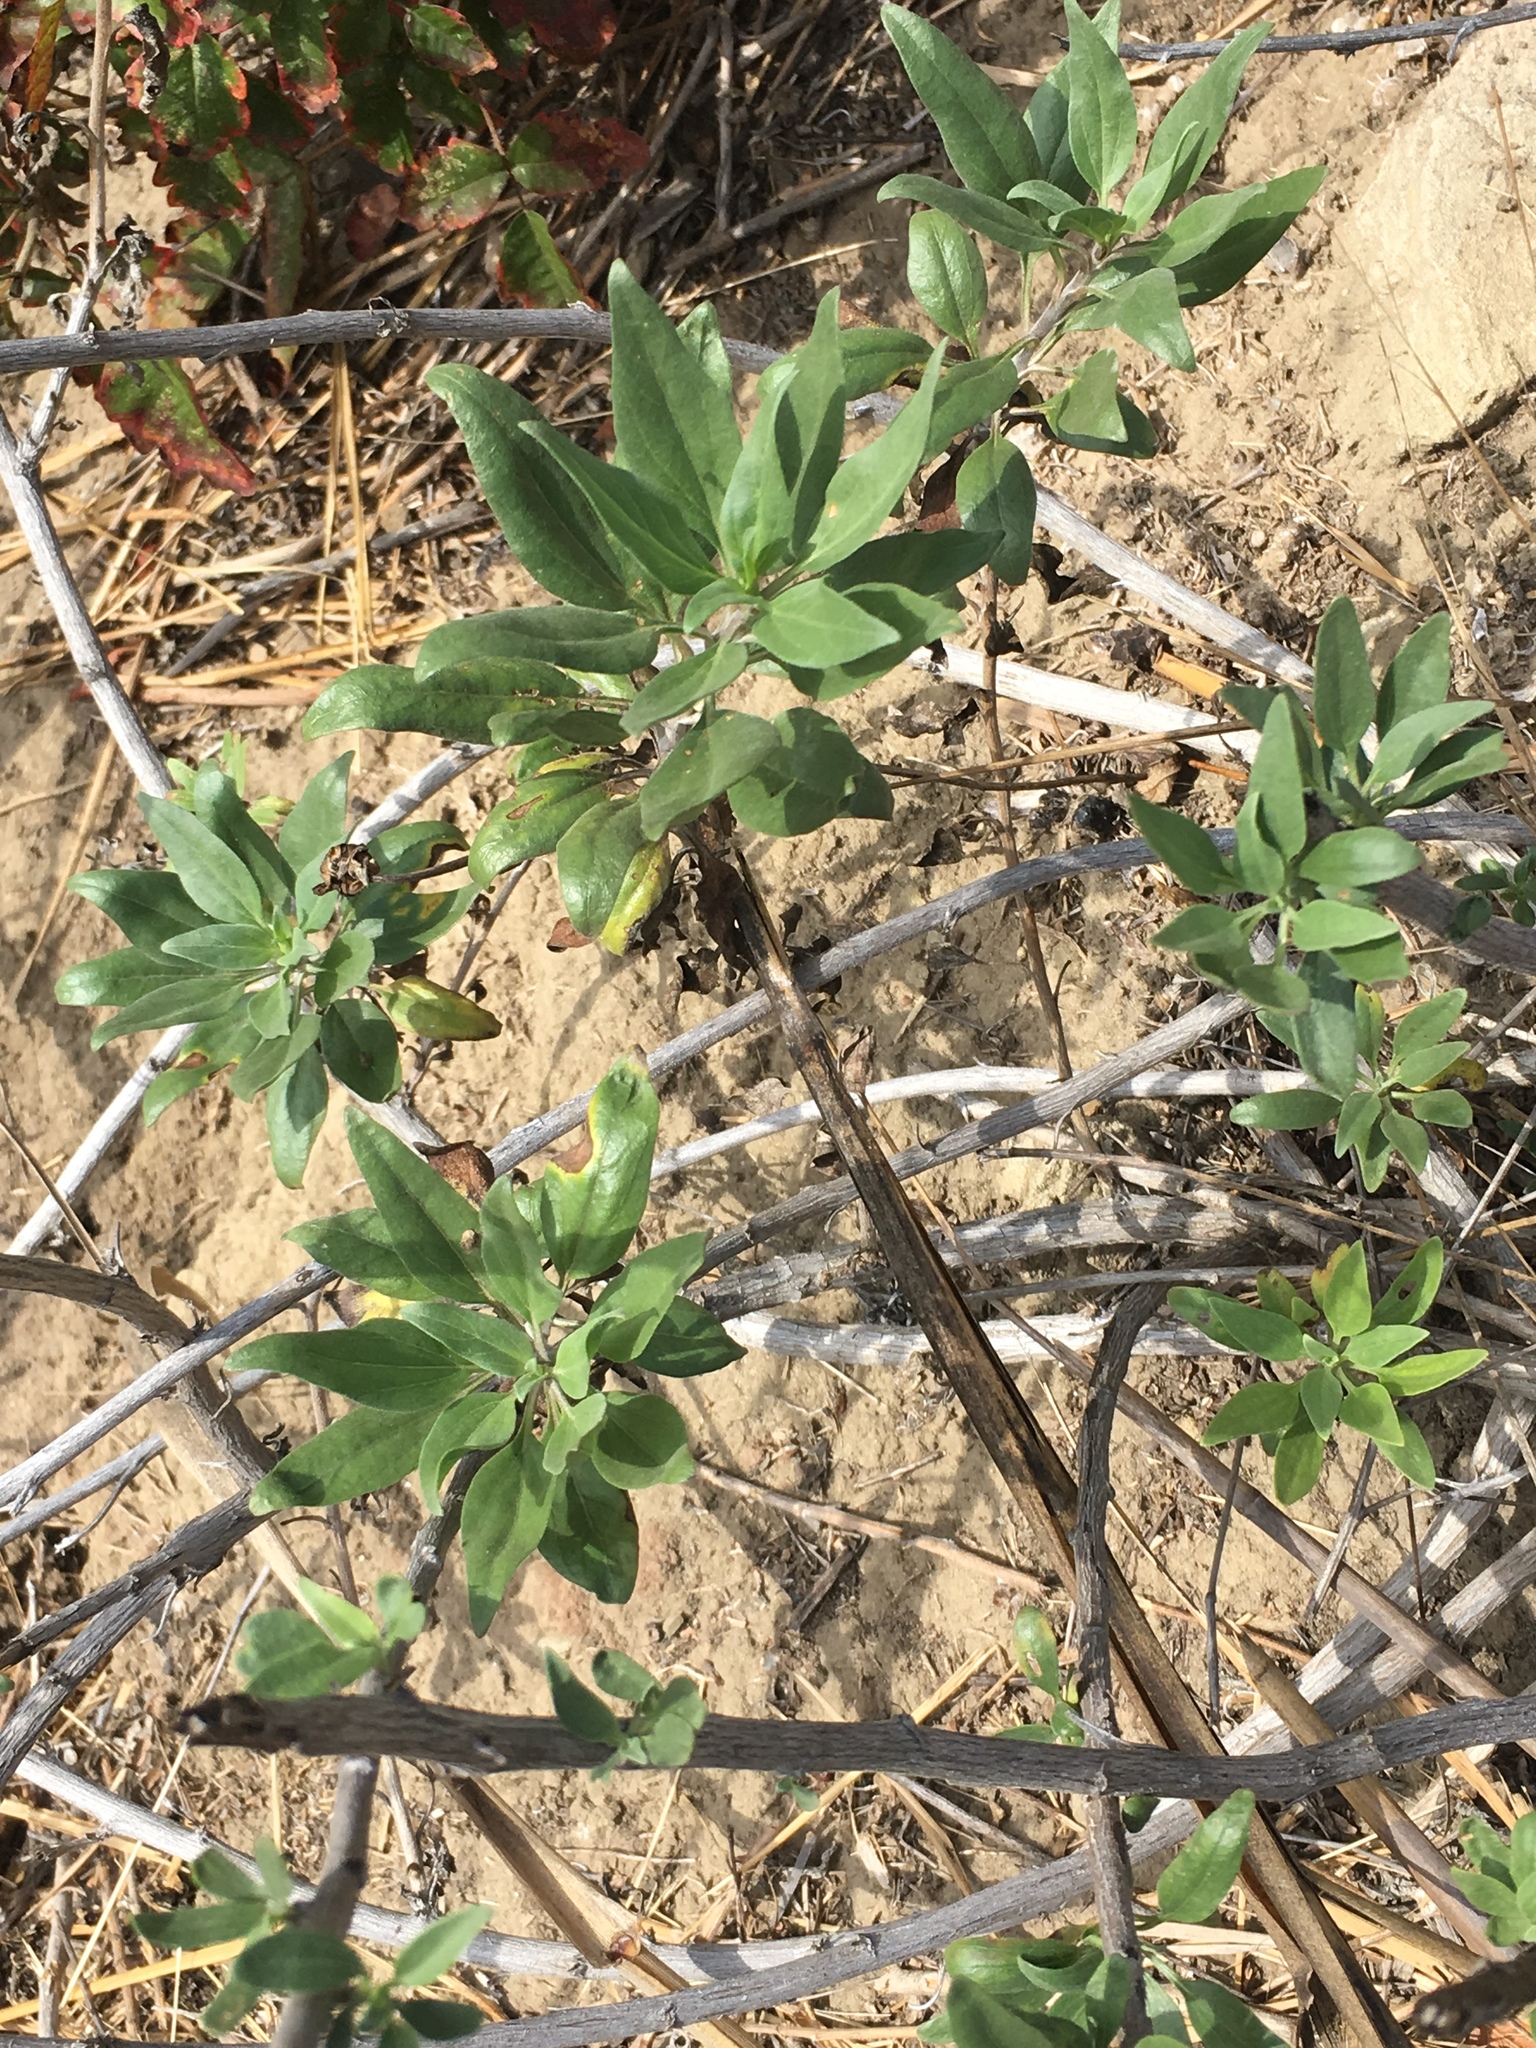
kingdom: Plantae
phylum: Tracheophyta
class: Magnoliopsida
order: Asterales
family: Asteraceae
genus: Encelia
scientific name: Encelia californica
